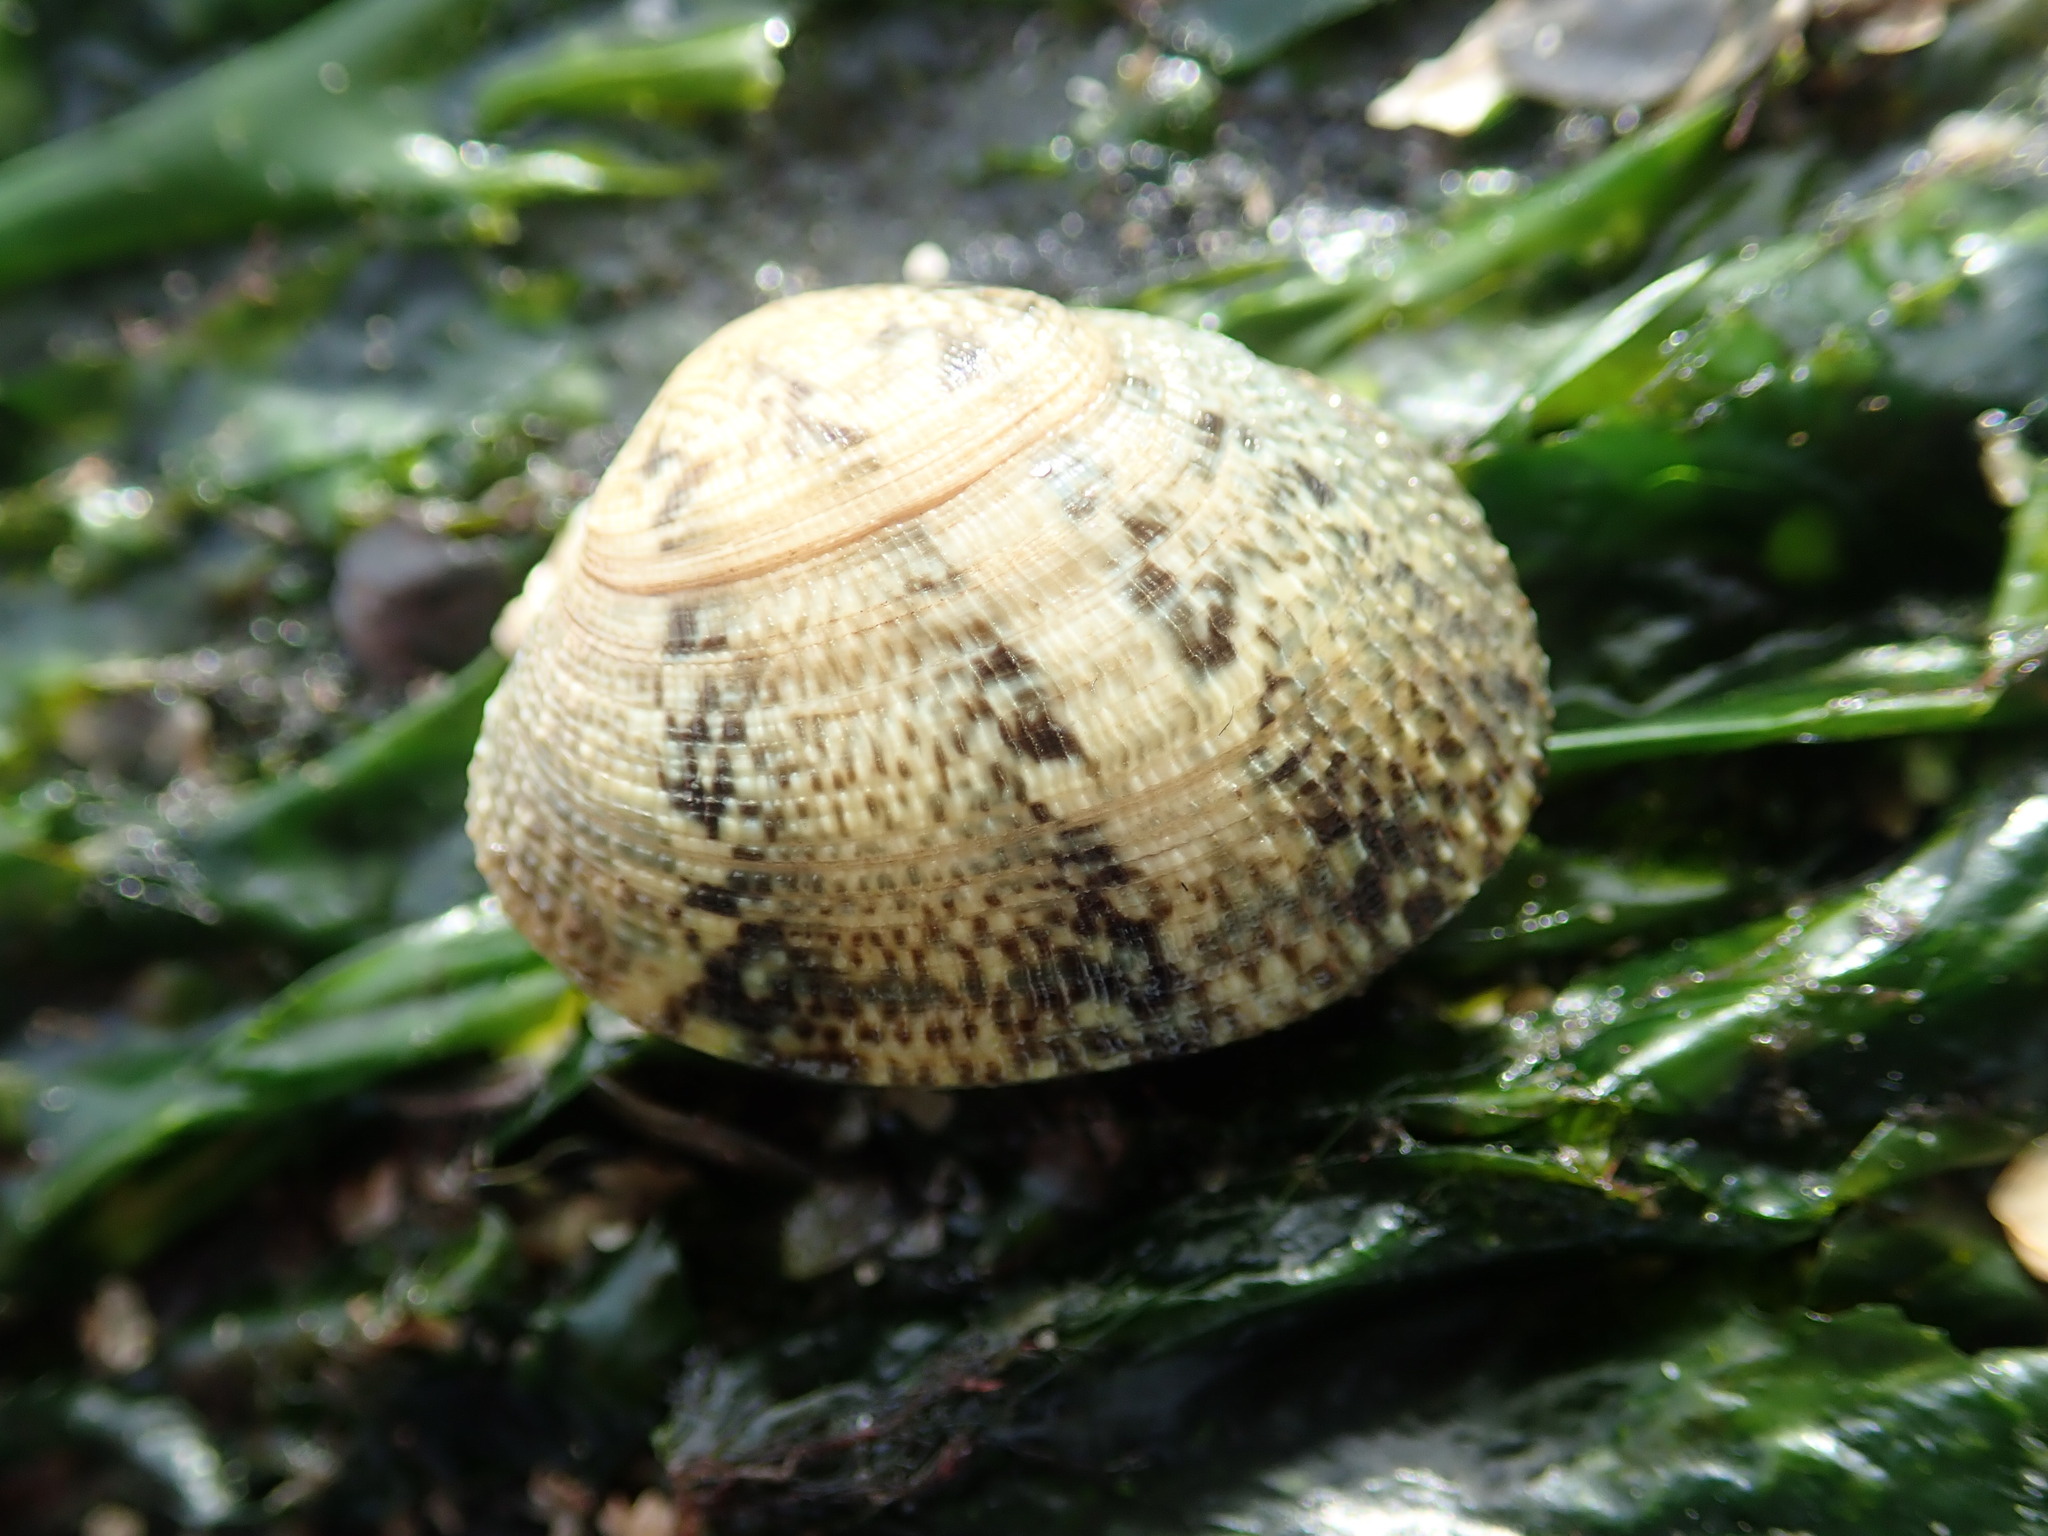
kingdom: Animalia
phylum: Mollusca
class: Bivalvia
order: Venerida
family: Veneridae
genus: Ruditapes
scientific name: Ruditapes philippinarum
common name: Manila clam
